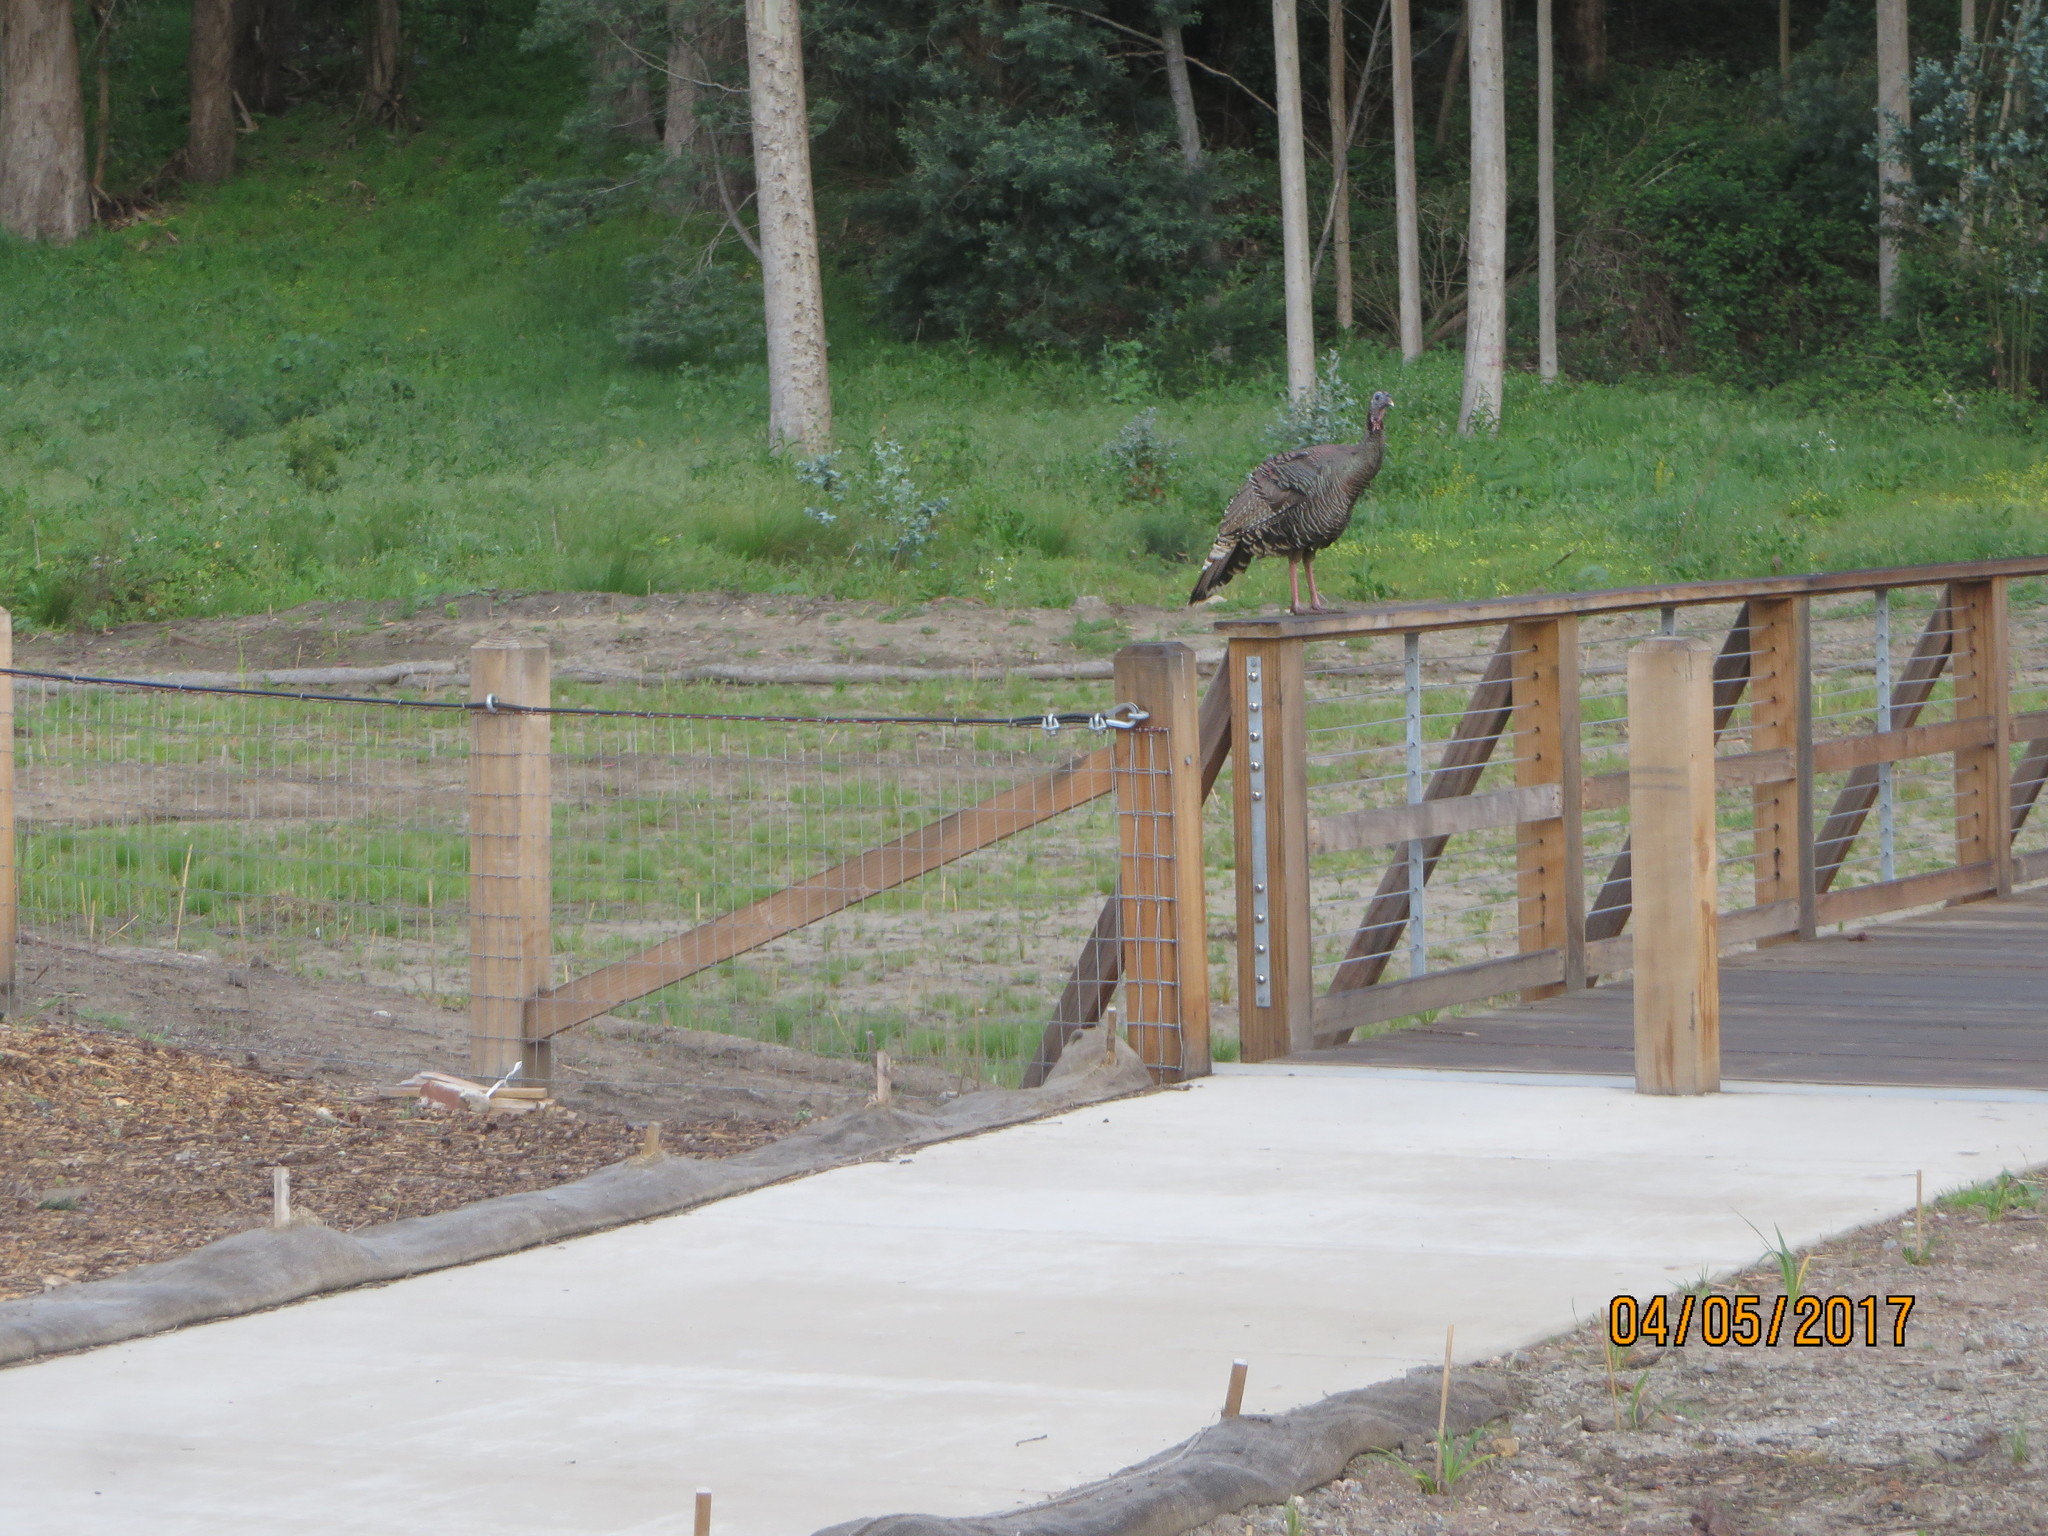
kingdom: Animalia
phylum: Chordata
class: Aves
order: Galliformes
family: Phasianidae
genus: Meleagris
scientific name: Meleagris gallopavo
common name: Wild turkey
